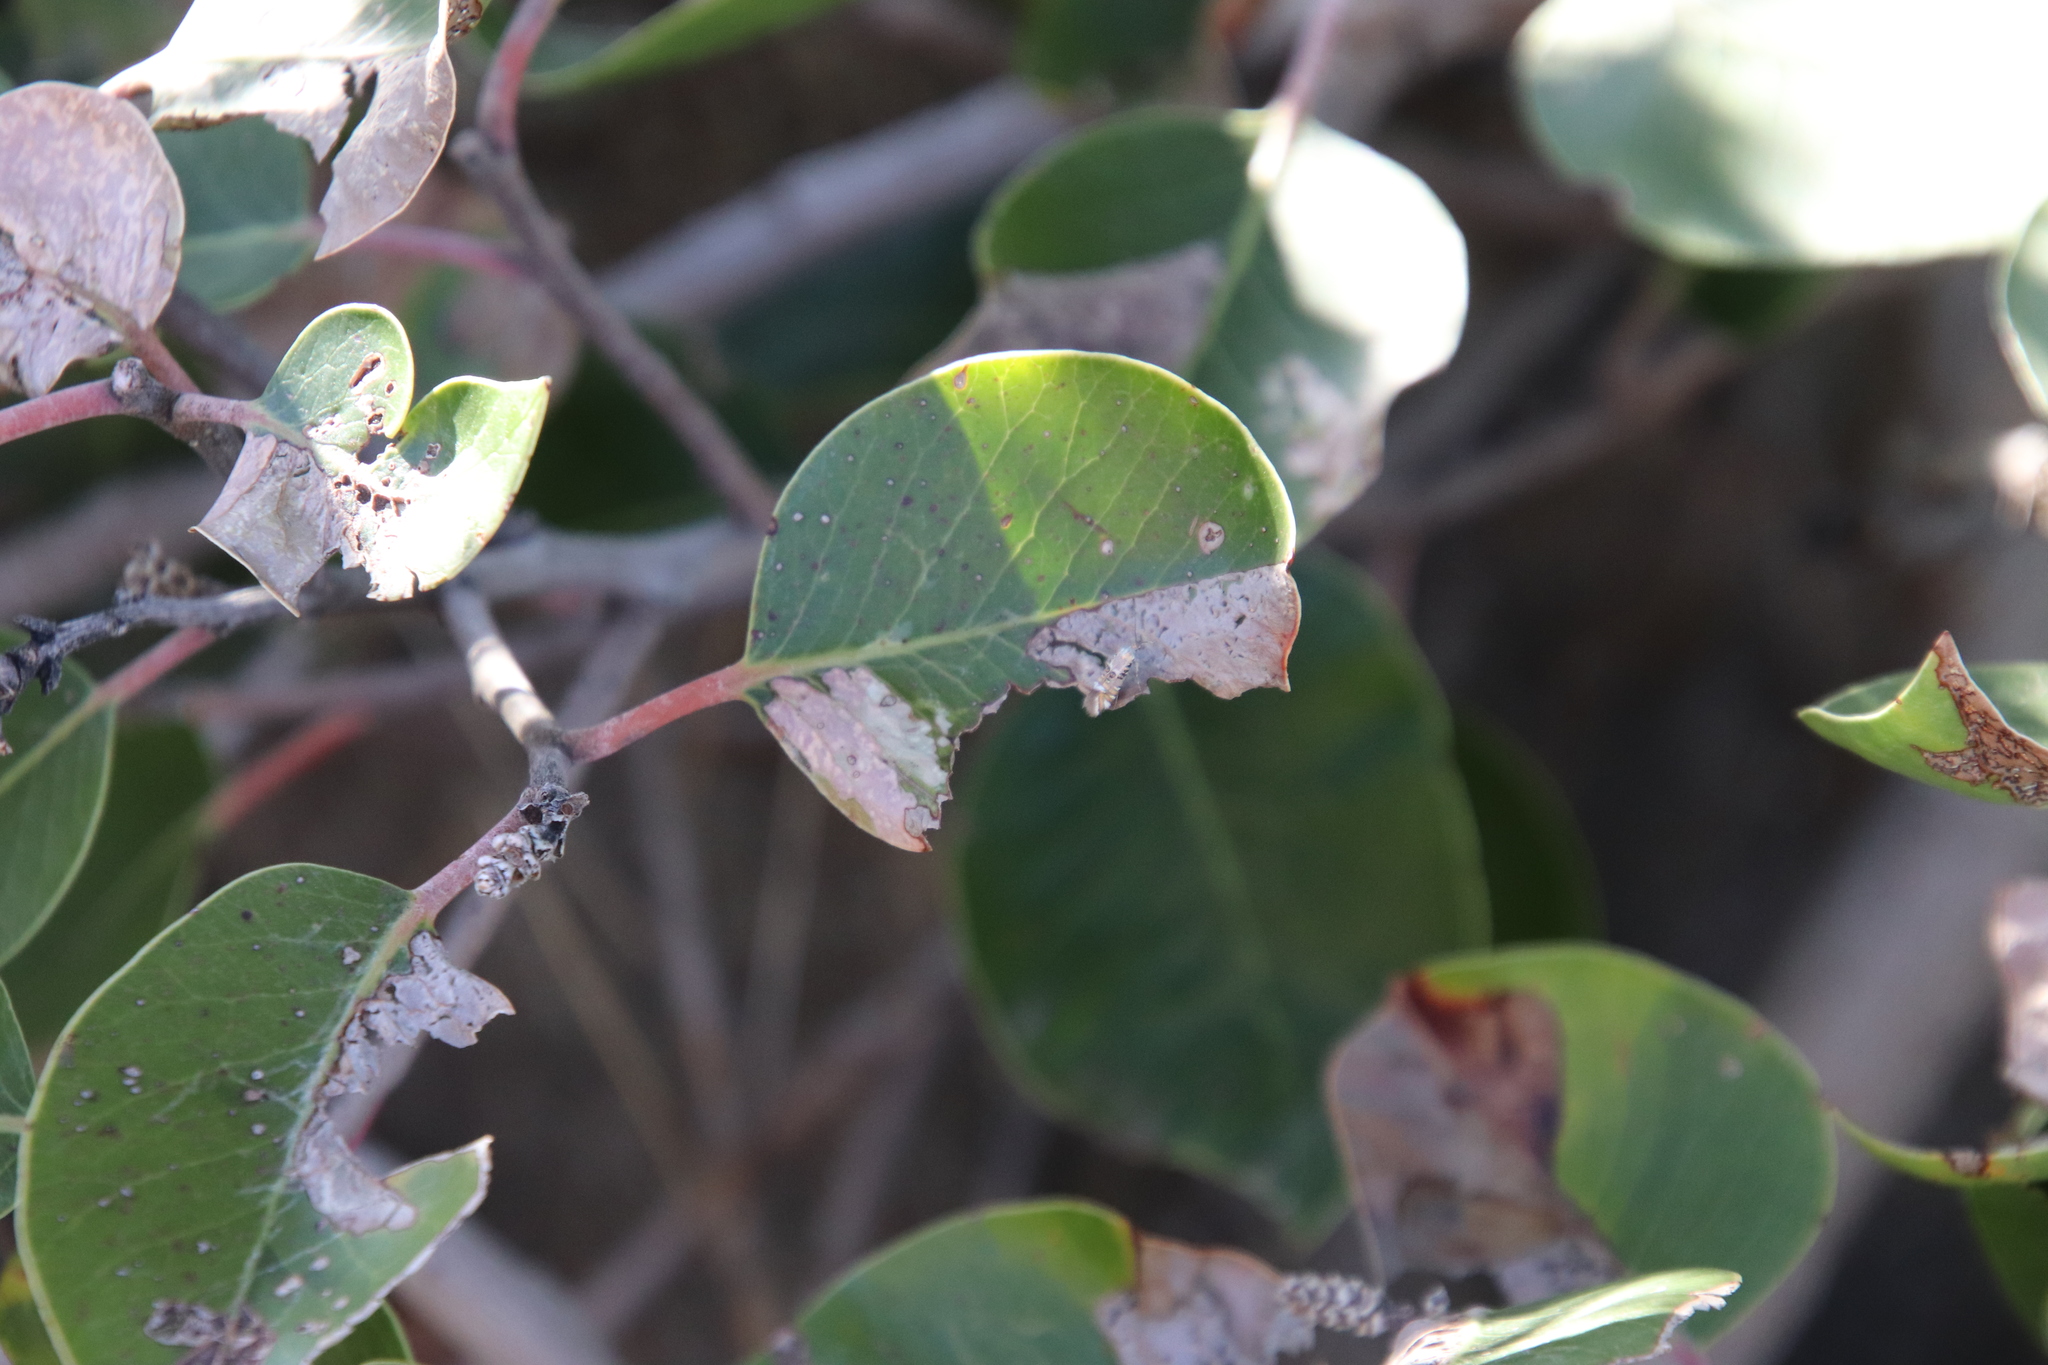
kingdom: Animalia
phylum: Arthropoda
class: Insecta
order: Lepidoptera
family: Heliodinidae
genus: Lithariapteryx
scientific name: Lithariapteryx jubarella
